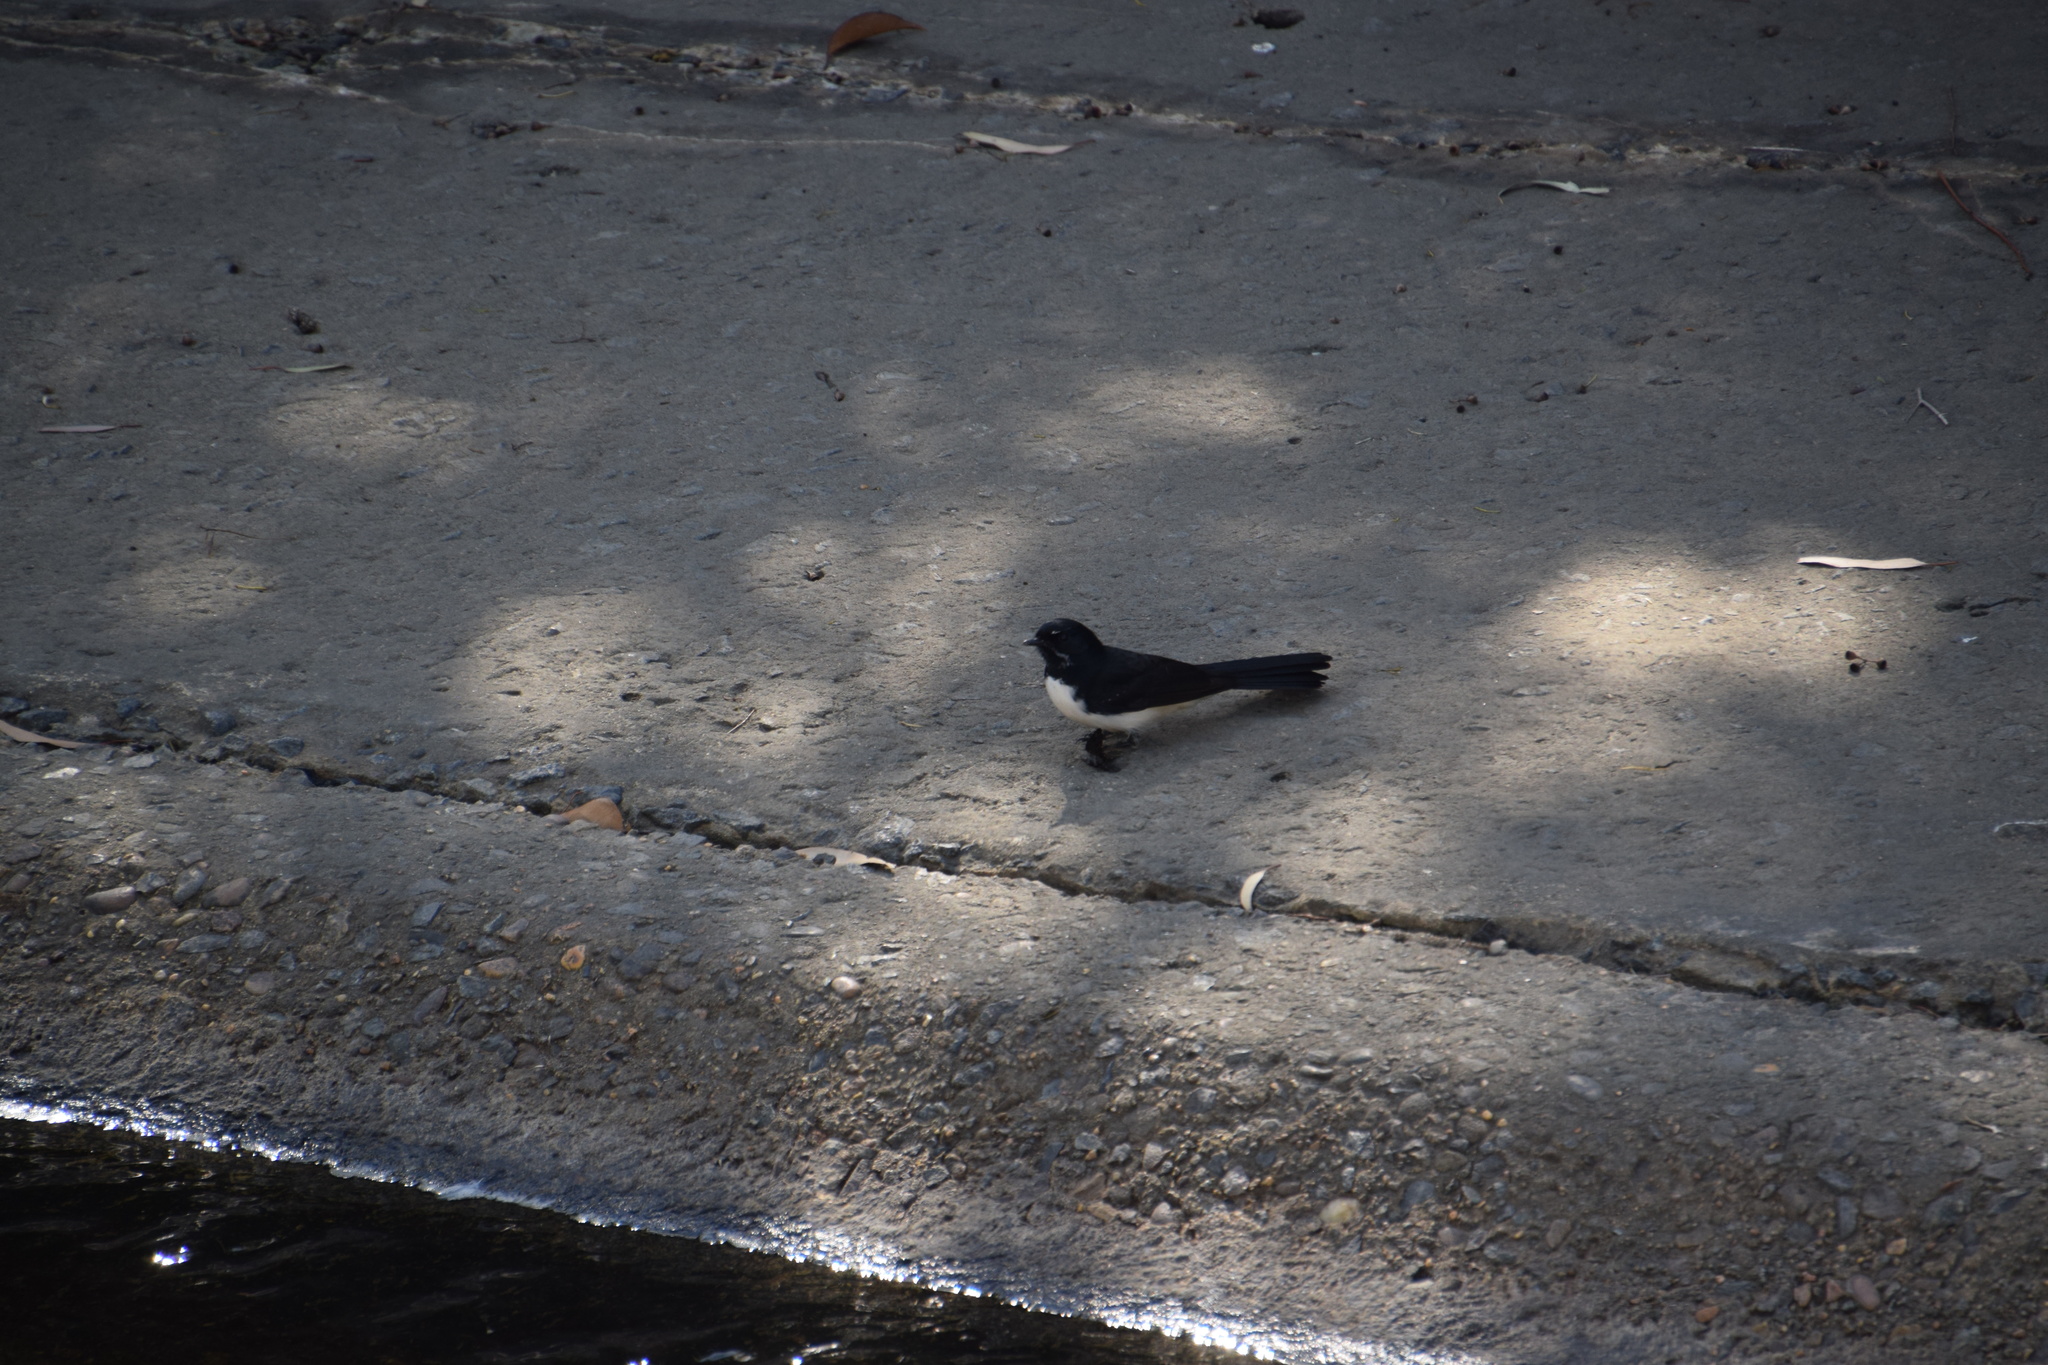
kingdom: Animalia
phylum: Chordata
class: Aves
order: Passeriformes
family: Rhipiduridae
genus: Rhipidura
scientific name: Rhipidura leucophrys
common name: Willie wagtail
